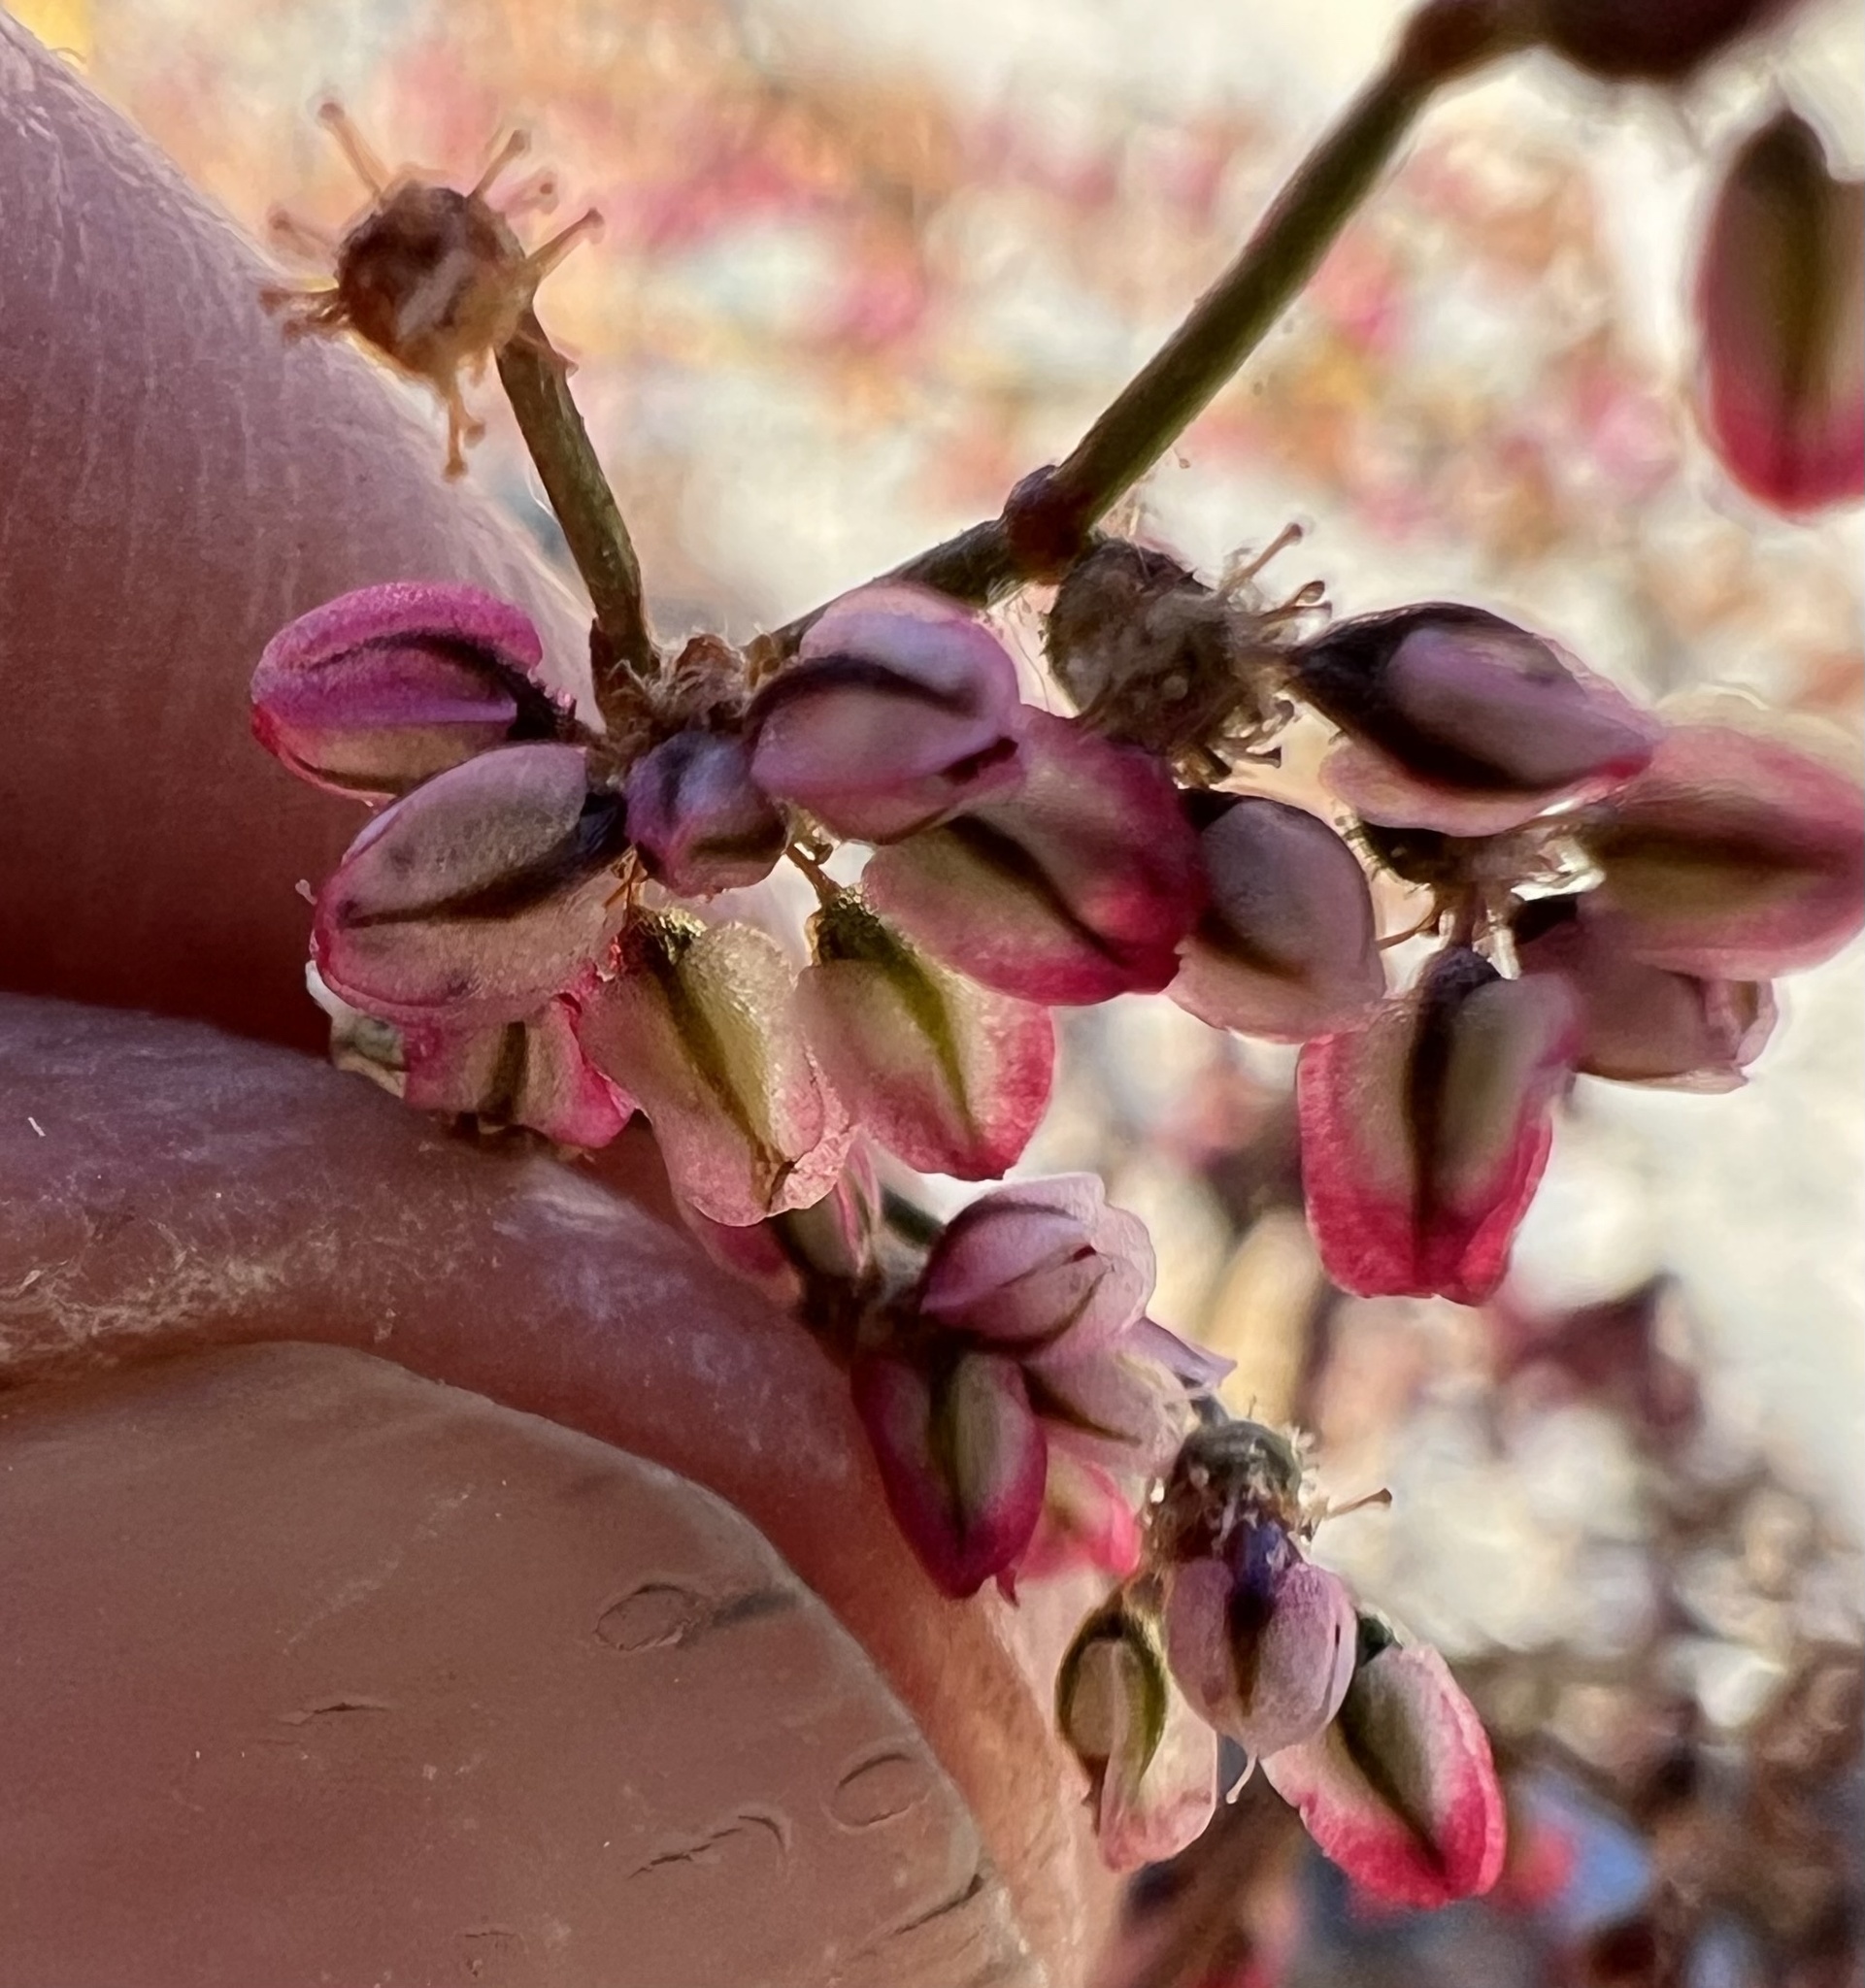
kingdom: Plantae
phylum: Tracheophyta
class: Magnoliopsida
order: Caryophyllales
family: Polygonaceae
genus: Eriogonum
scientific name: Eriogonum brachypodum
